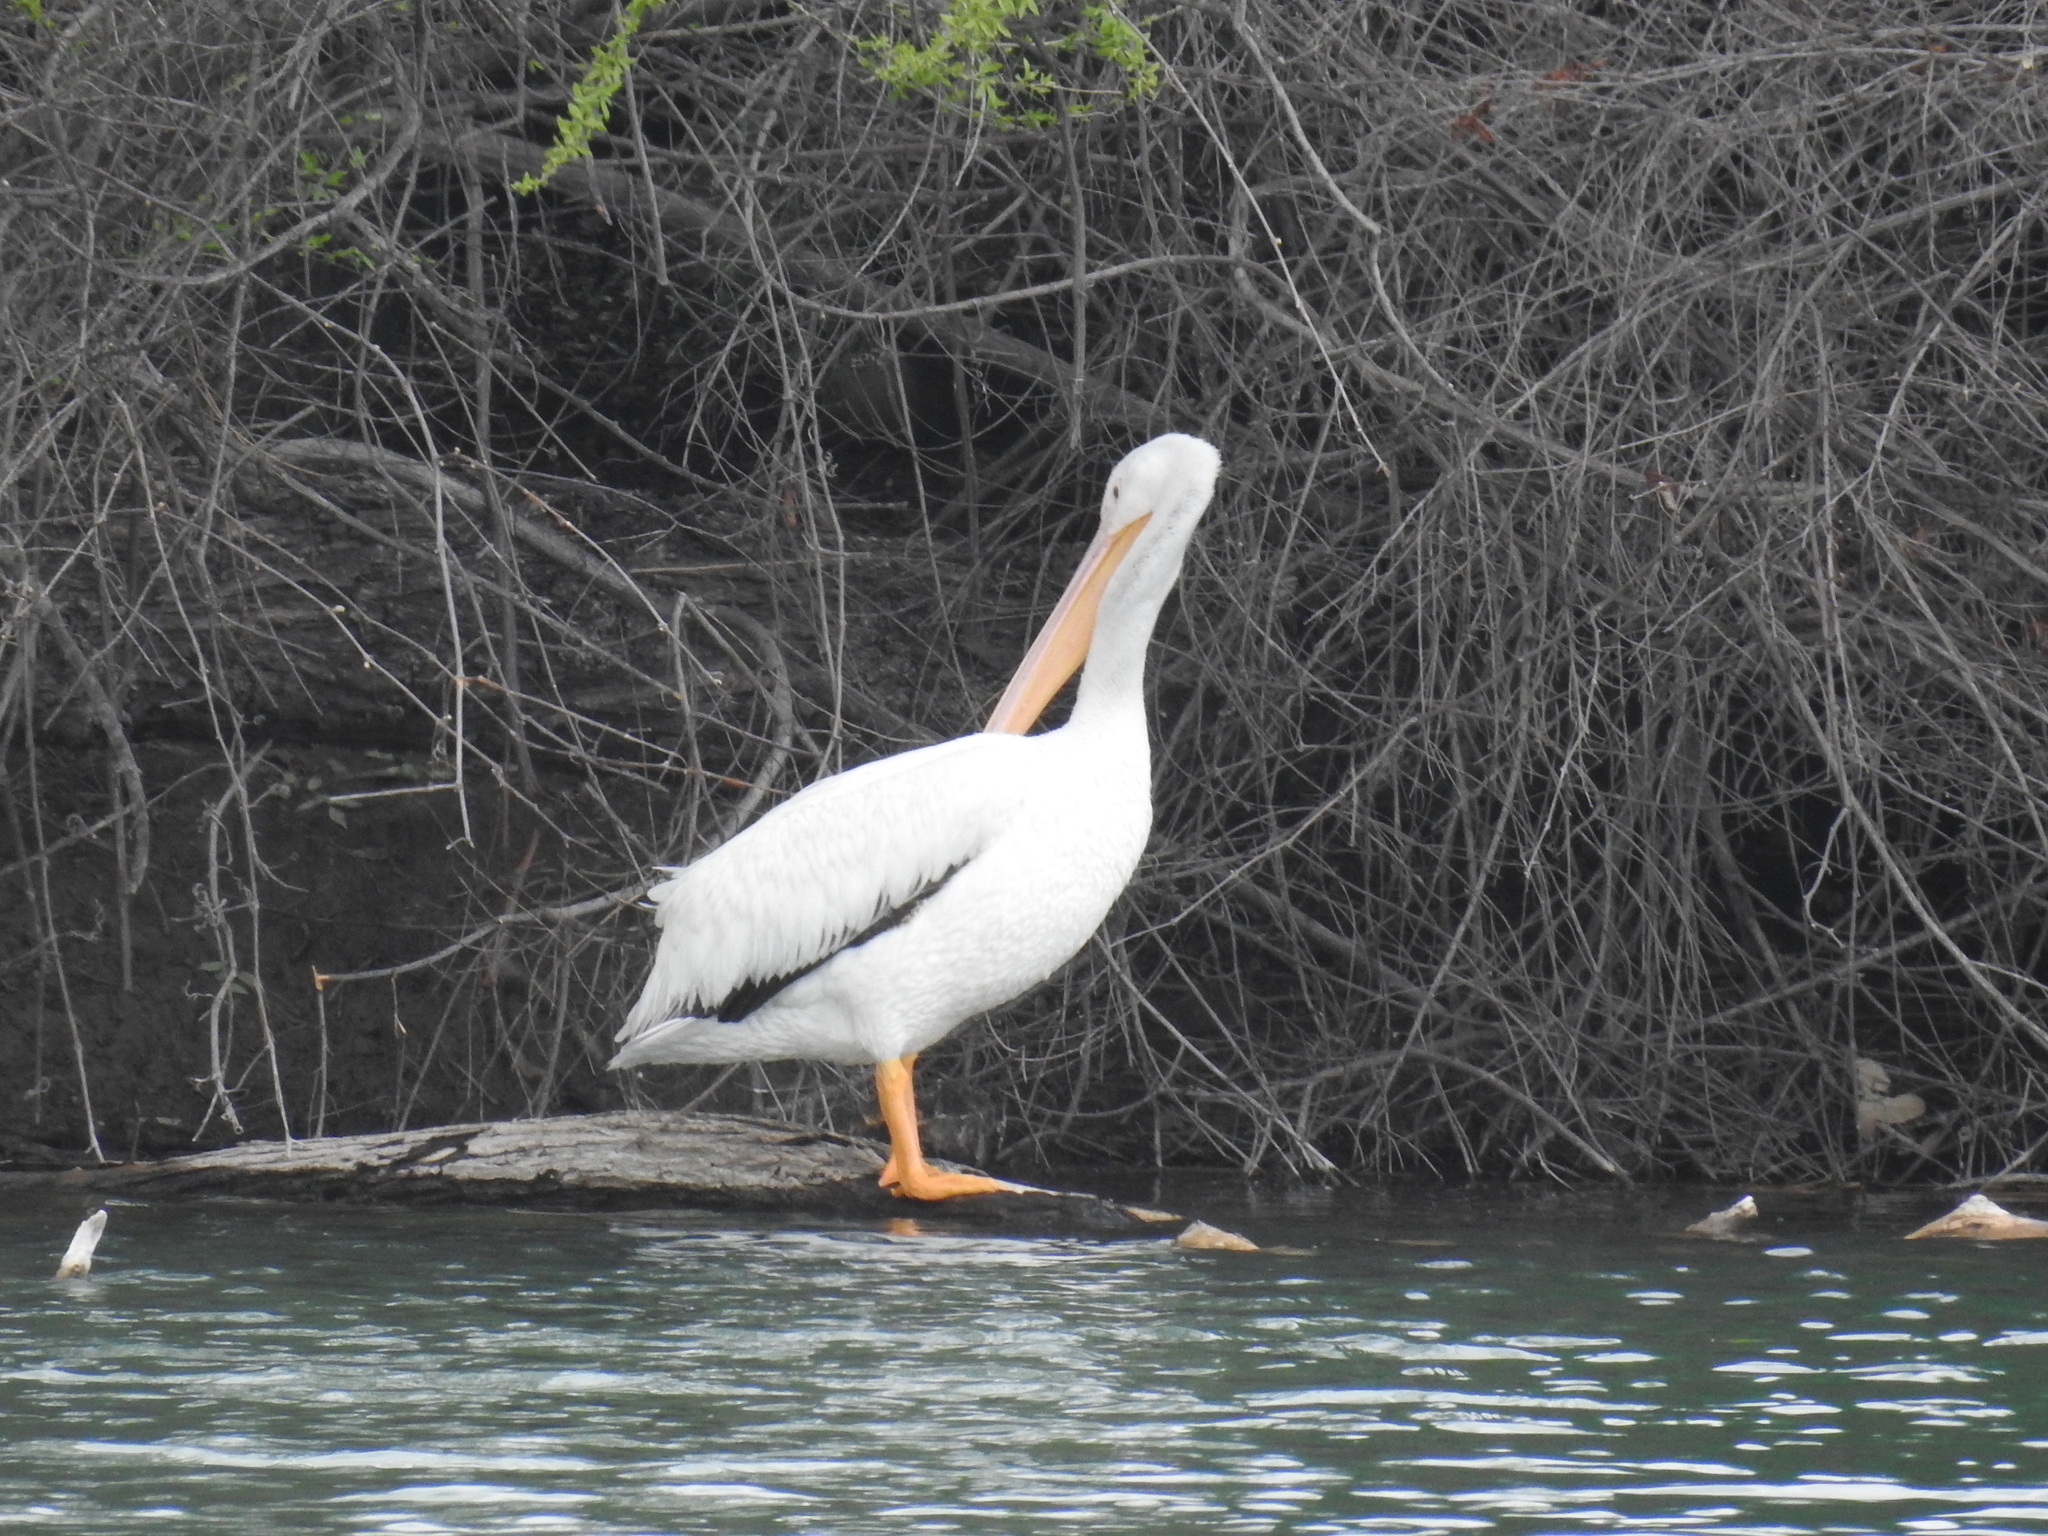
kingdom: Animalia
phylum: Chordata
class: Aves
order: Pelecaniformes
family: Pelecanidae
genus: Pelecanus
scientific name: Pelecanus erythrorhynchos
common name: American white pelican
